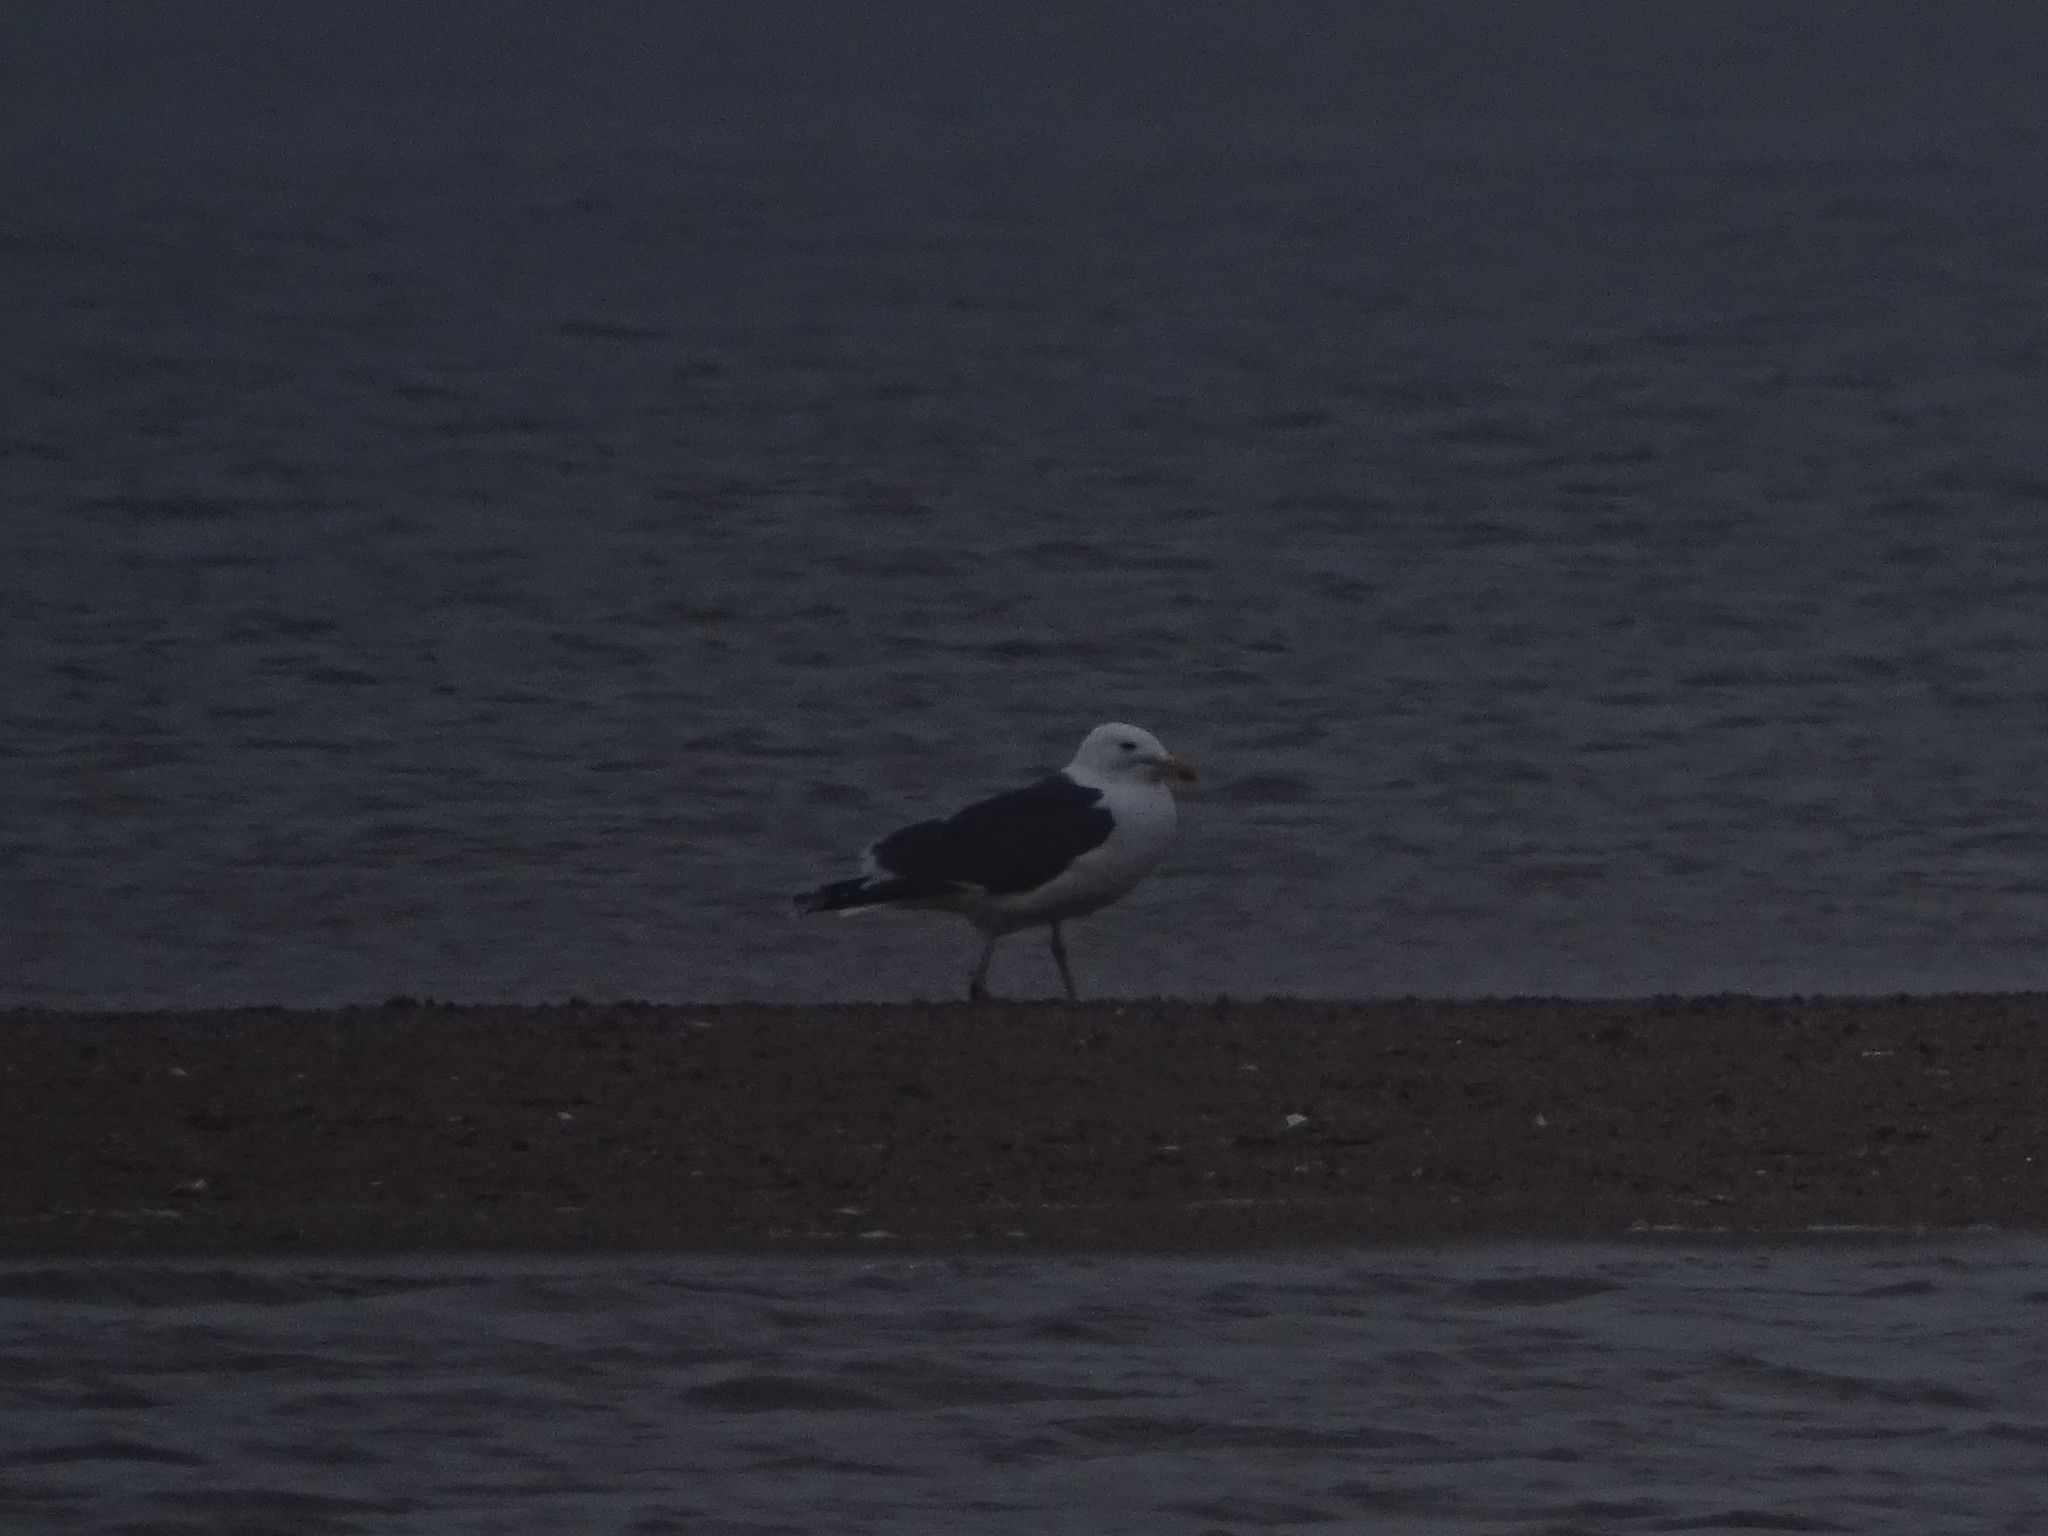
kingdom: Animalia
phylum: Chordata
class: Aves
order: Charadriiformes
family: Laridae
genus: Larus
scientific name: Larus marinus
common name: Great black-backed gull
